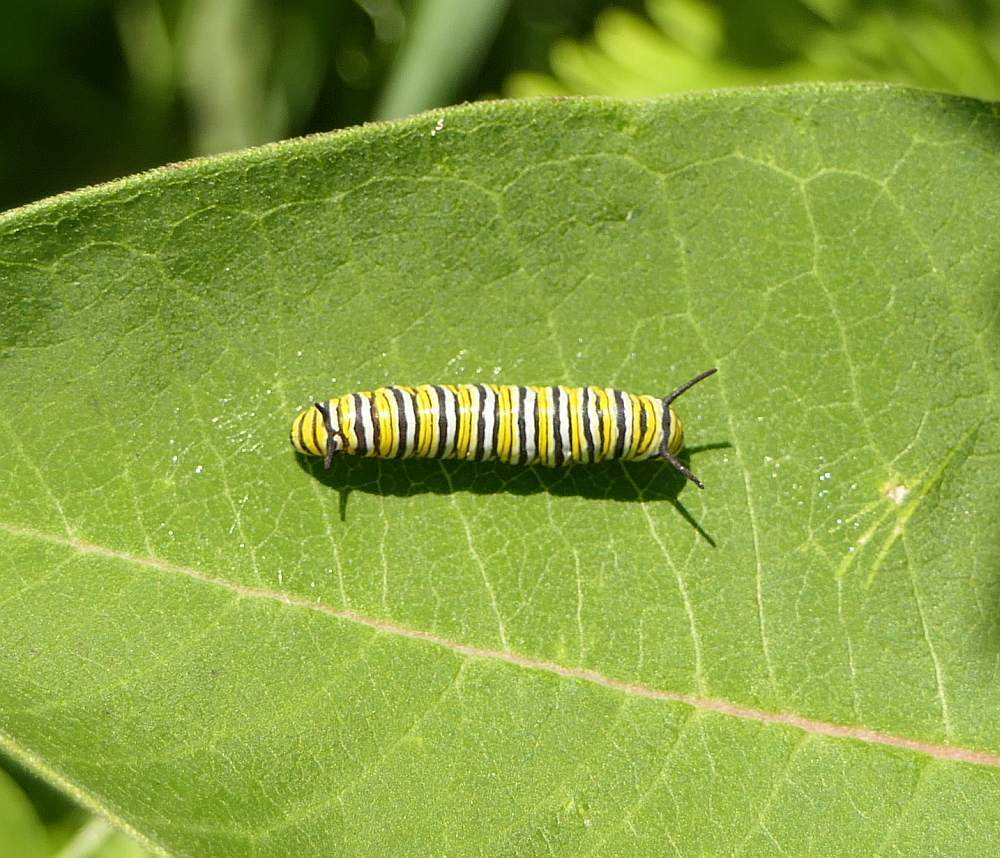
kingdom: Animalia
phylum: Arthropoda
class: Insecta
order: Lepidoptera
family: Nymphalidae
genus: Danaus
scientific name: Danaus plexippus
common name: Monarch
